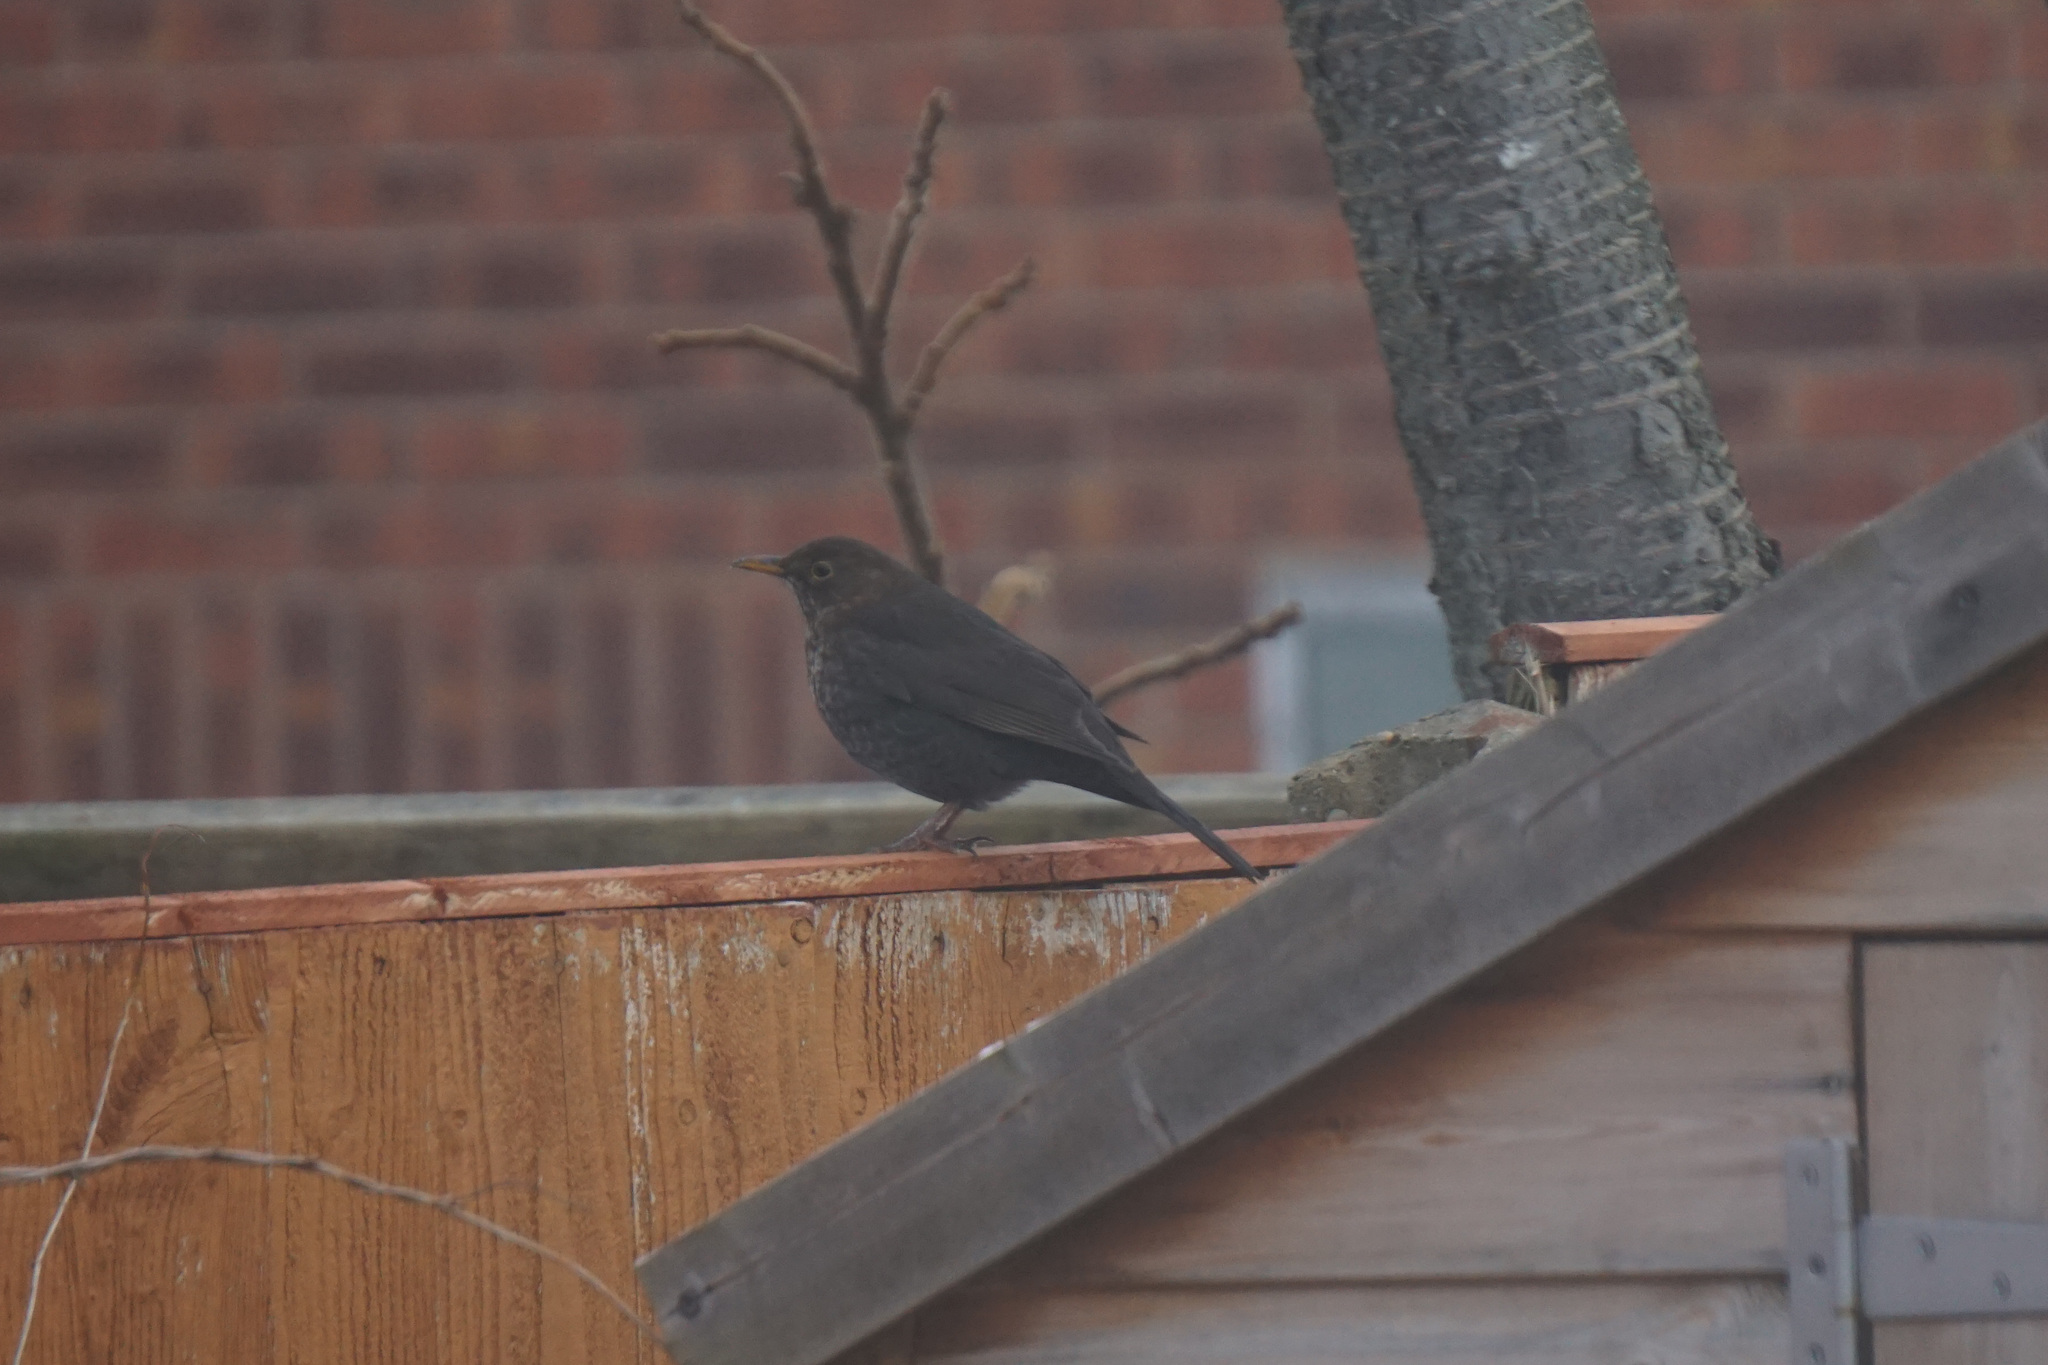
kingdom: Animalia
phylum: Chordata
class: Aves
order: Passeriformes
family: Turdidae
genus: Turdus
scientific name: Turdus merula
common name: Common blackbird
